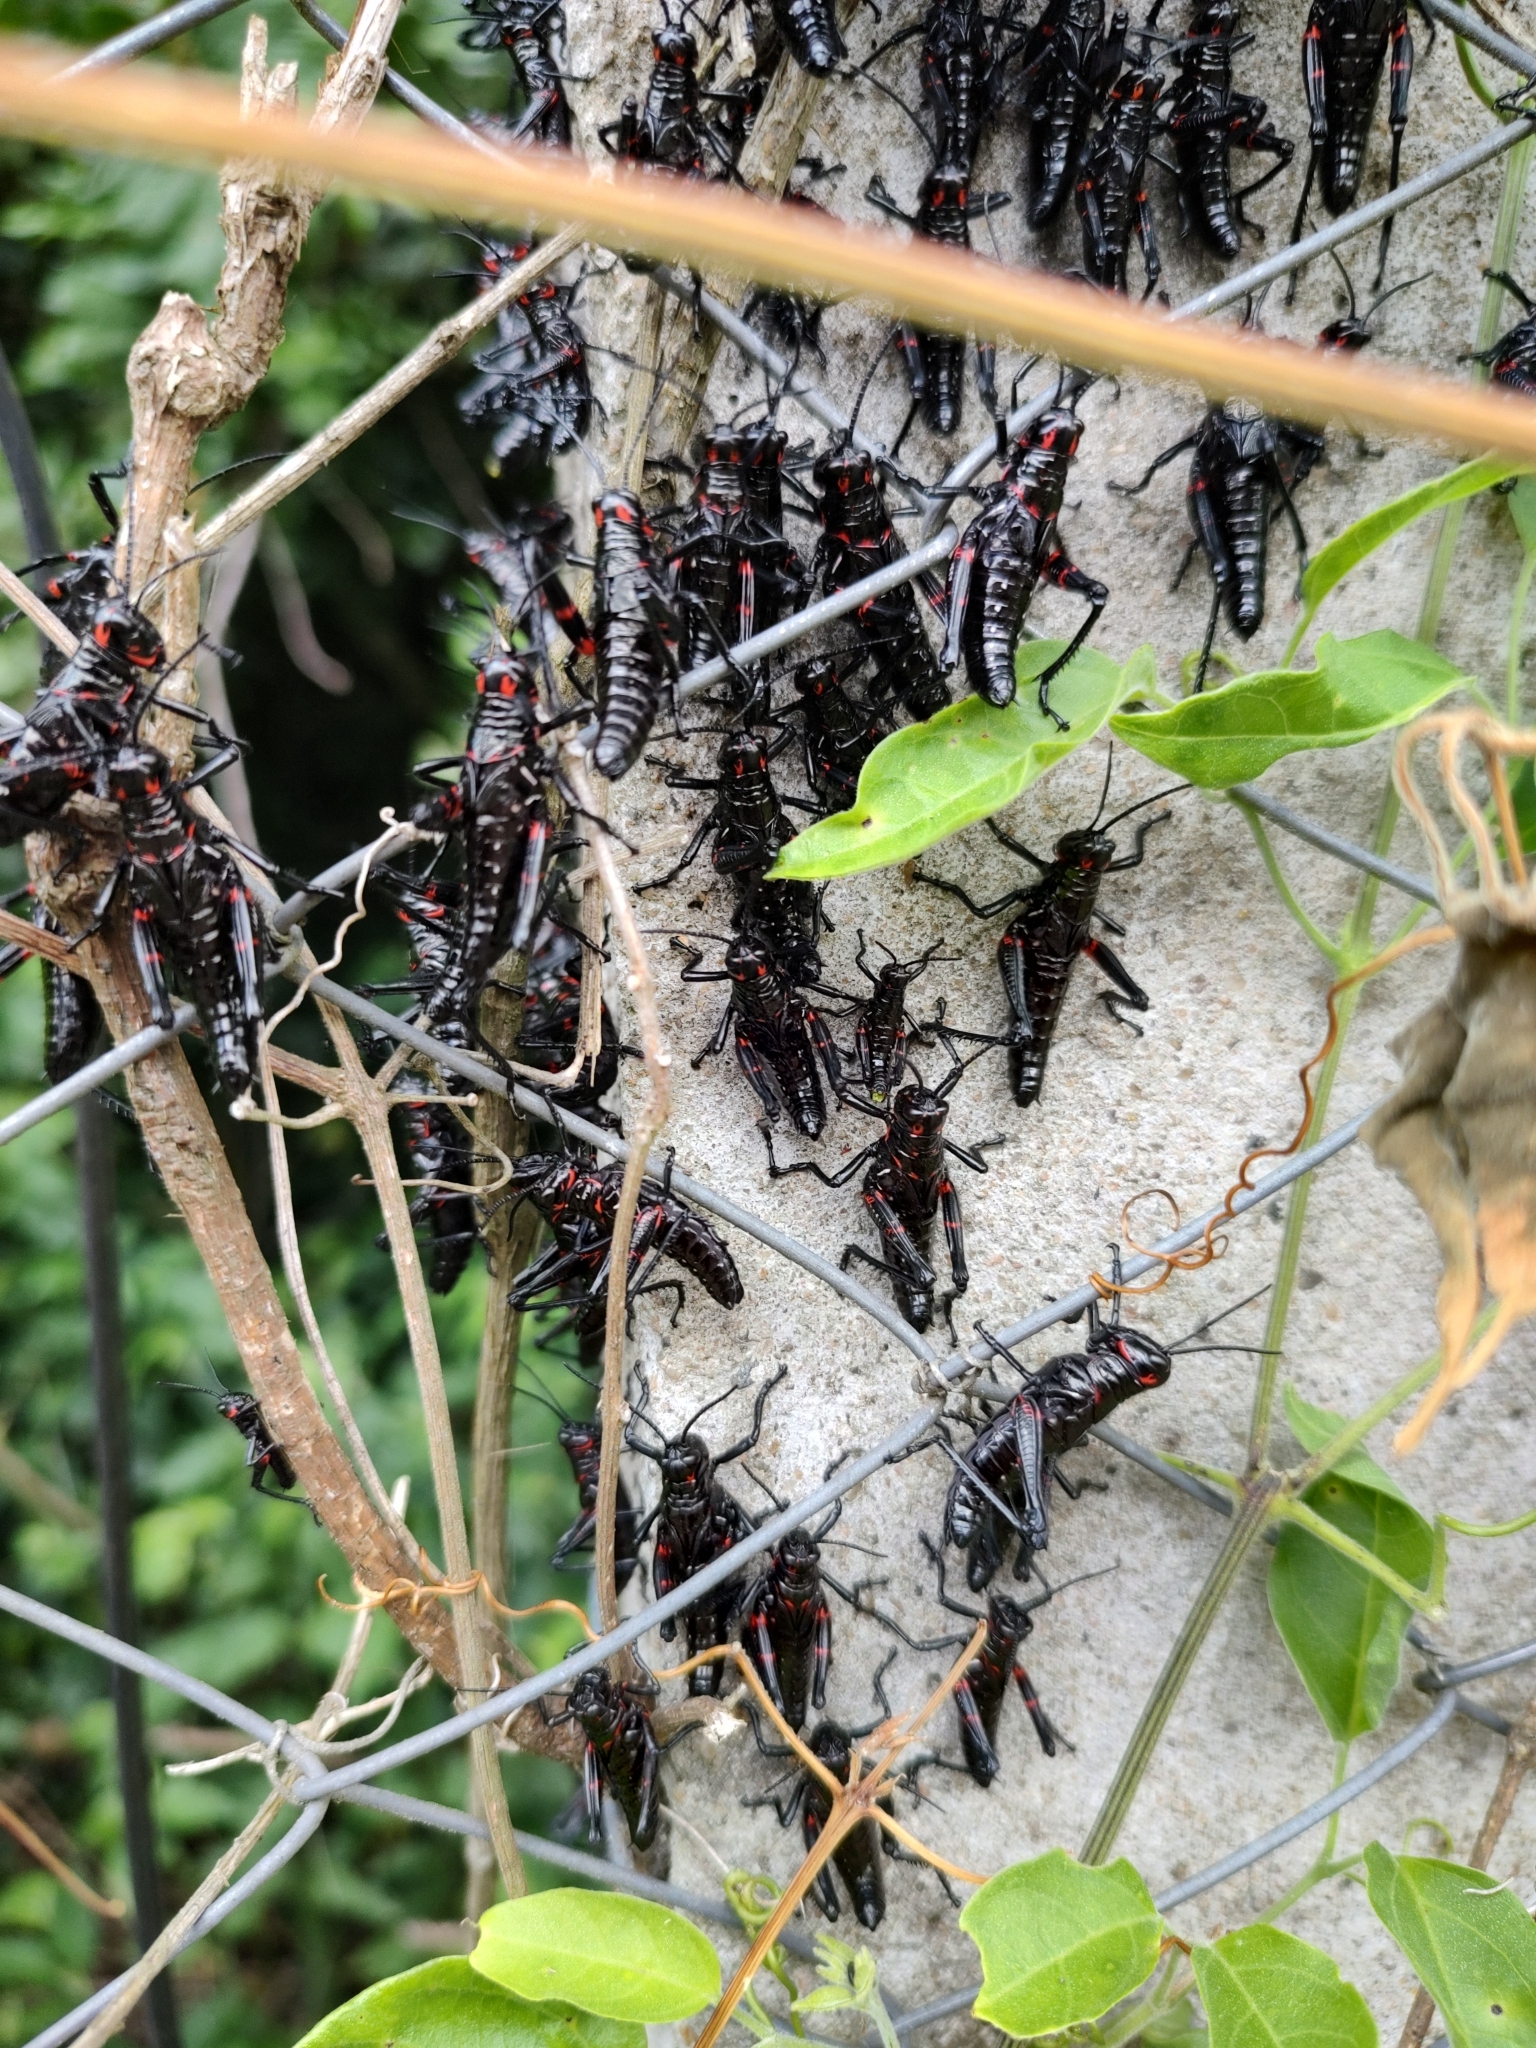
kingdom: Animalia
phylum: Arthropoda
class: Insecta
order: Orthoptera
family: Romaleidae
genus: Chromacris
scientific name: Chromacris speciosa
